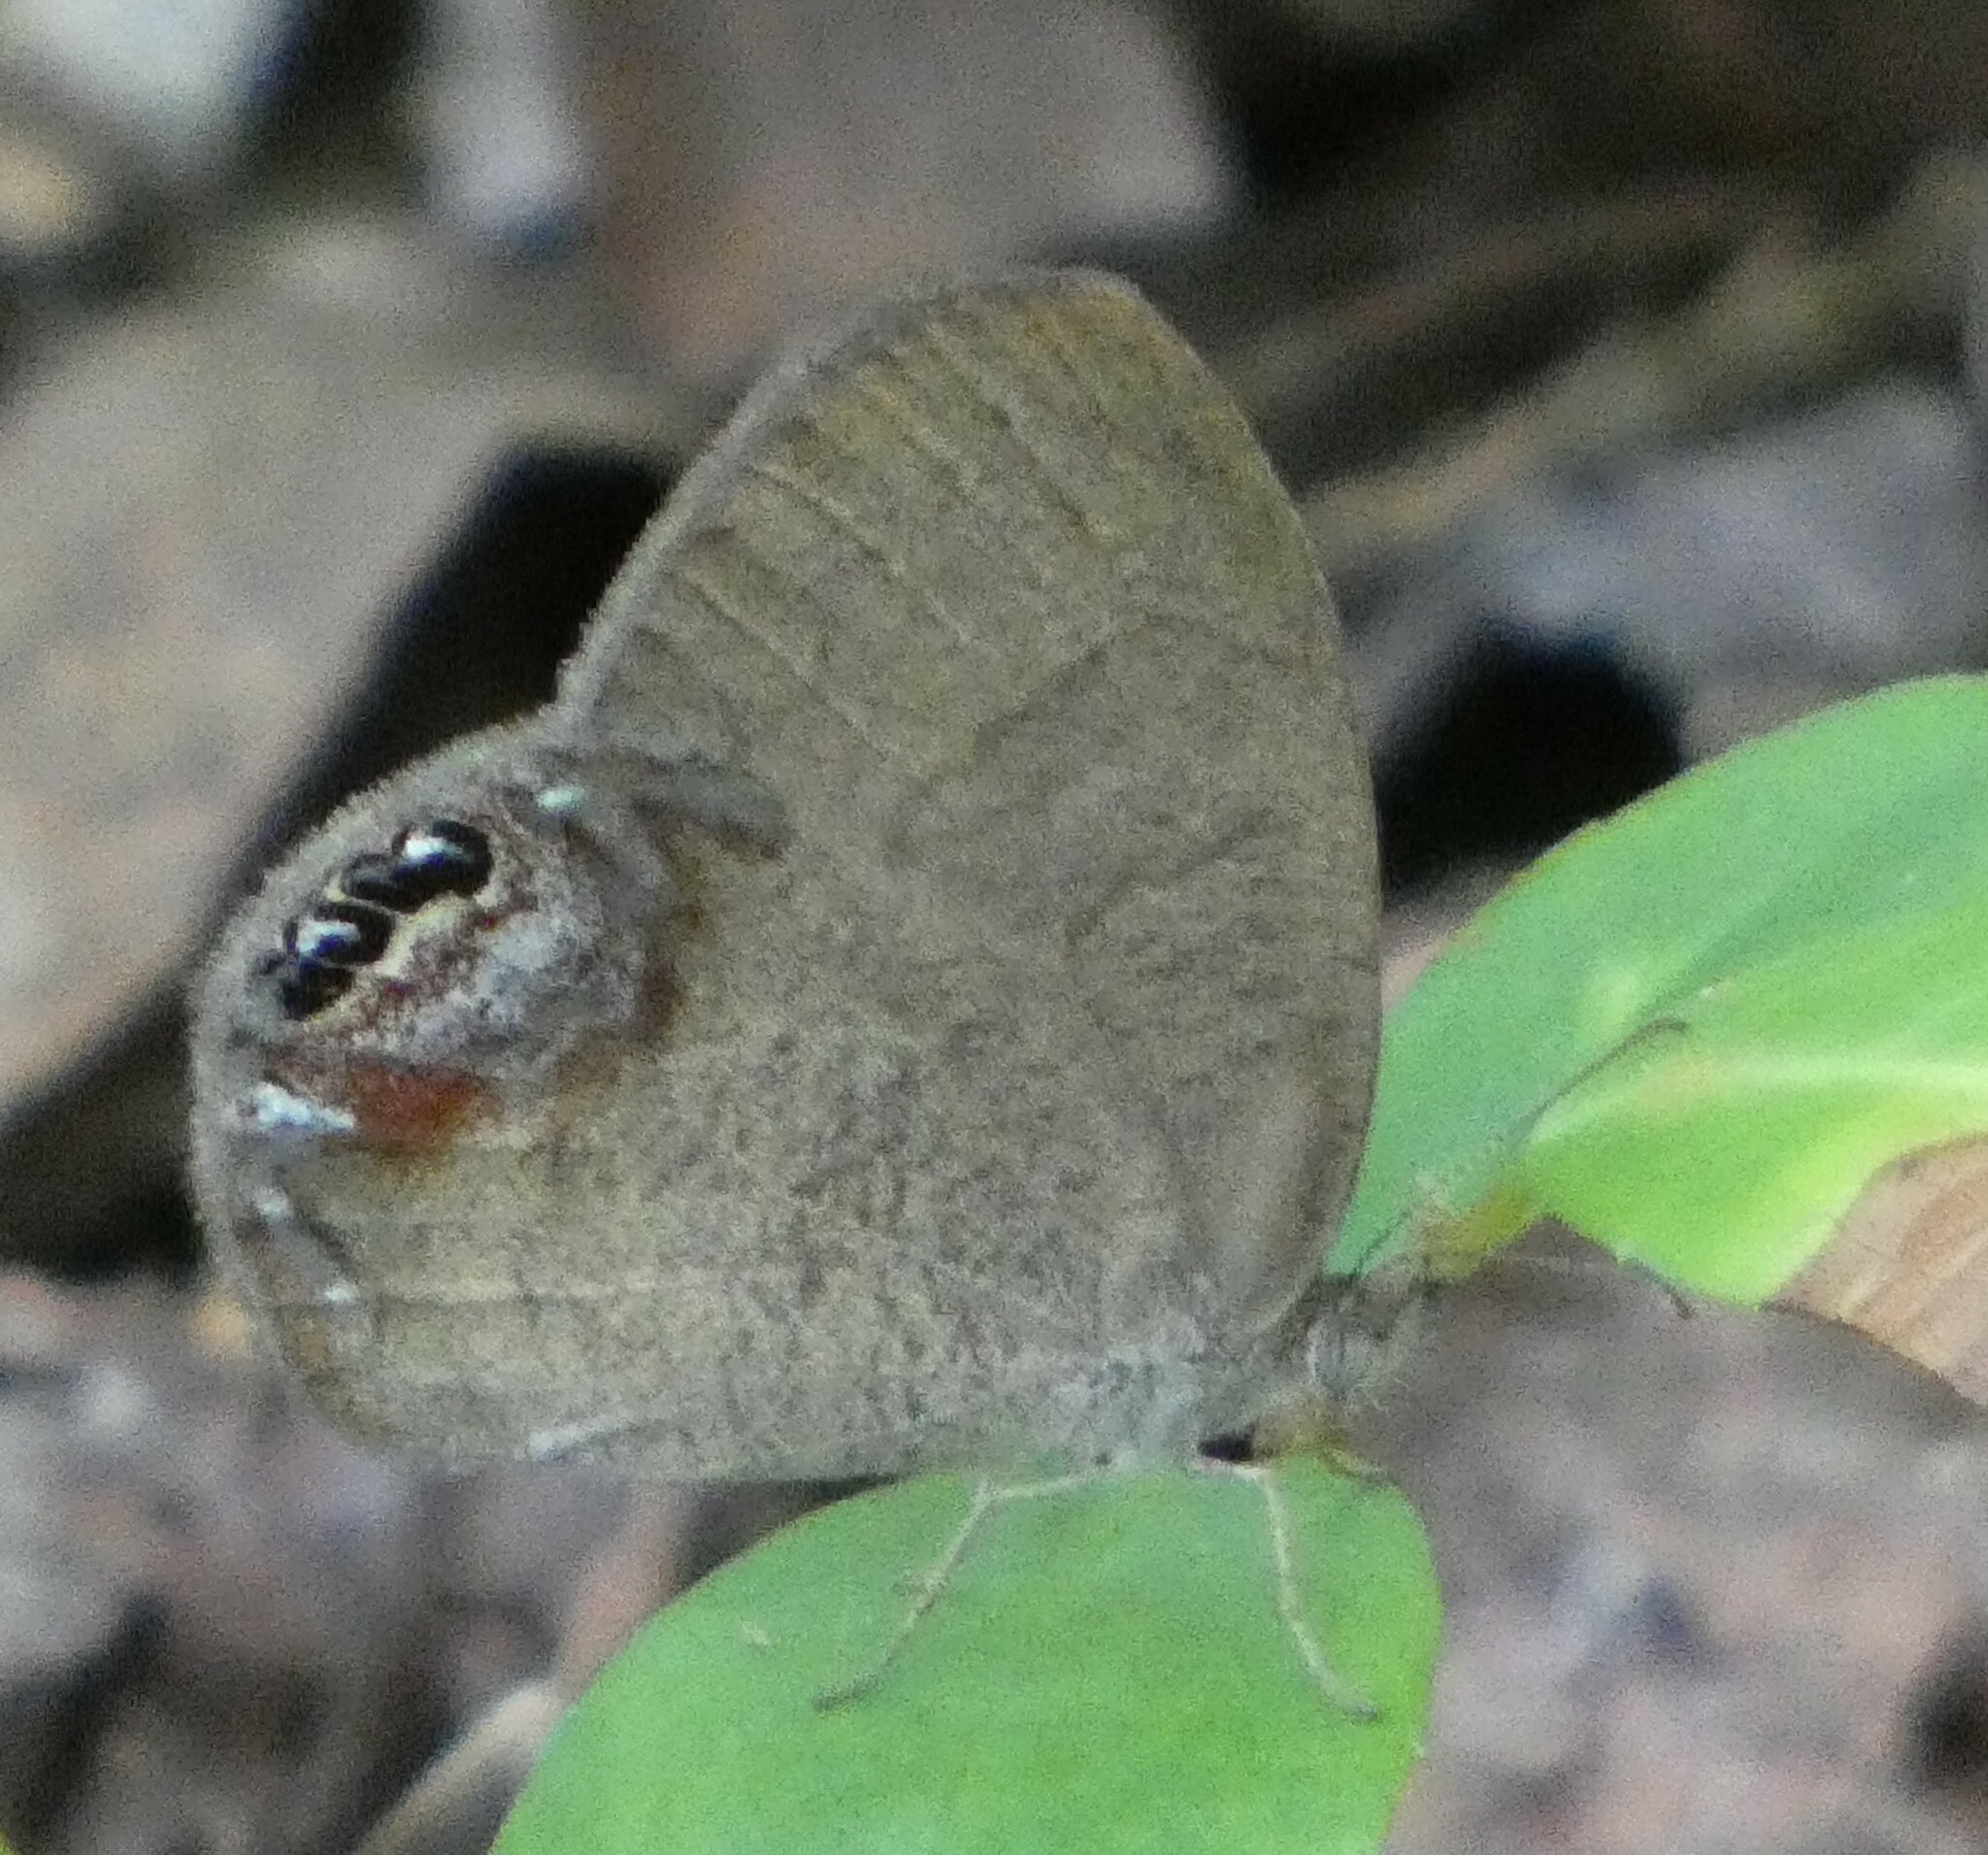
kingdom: Animalia
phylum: Arthropoda
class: Insecta
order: Lepidoptera
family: Nymphalidae
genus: Euptychia
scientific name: Euptychia cornelius
